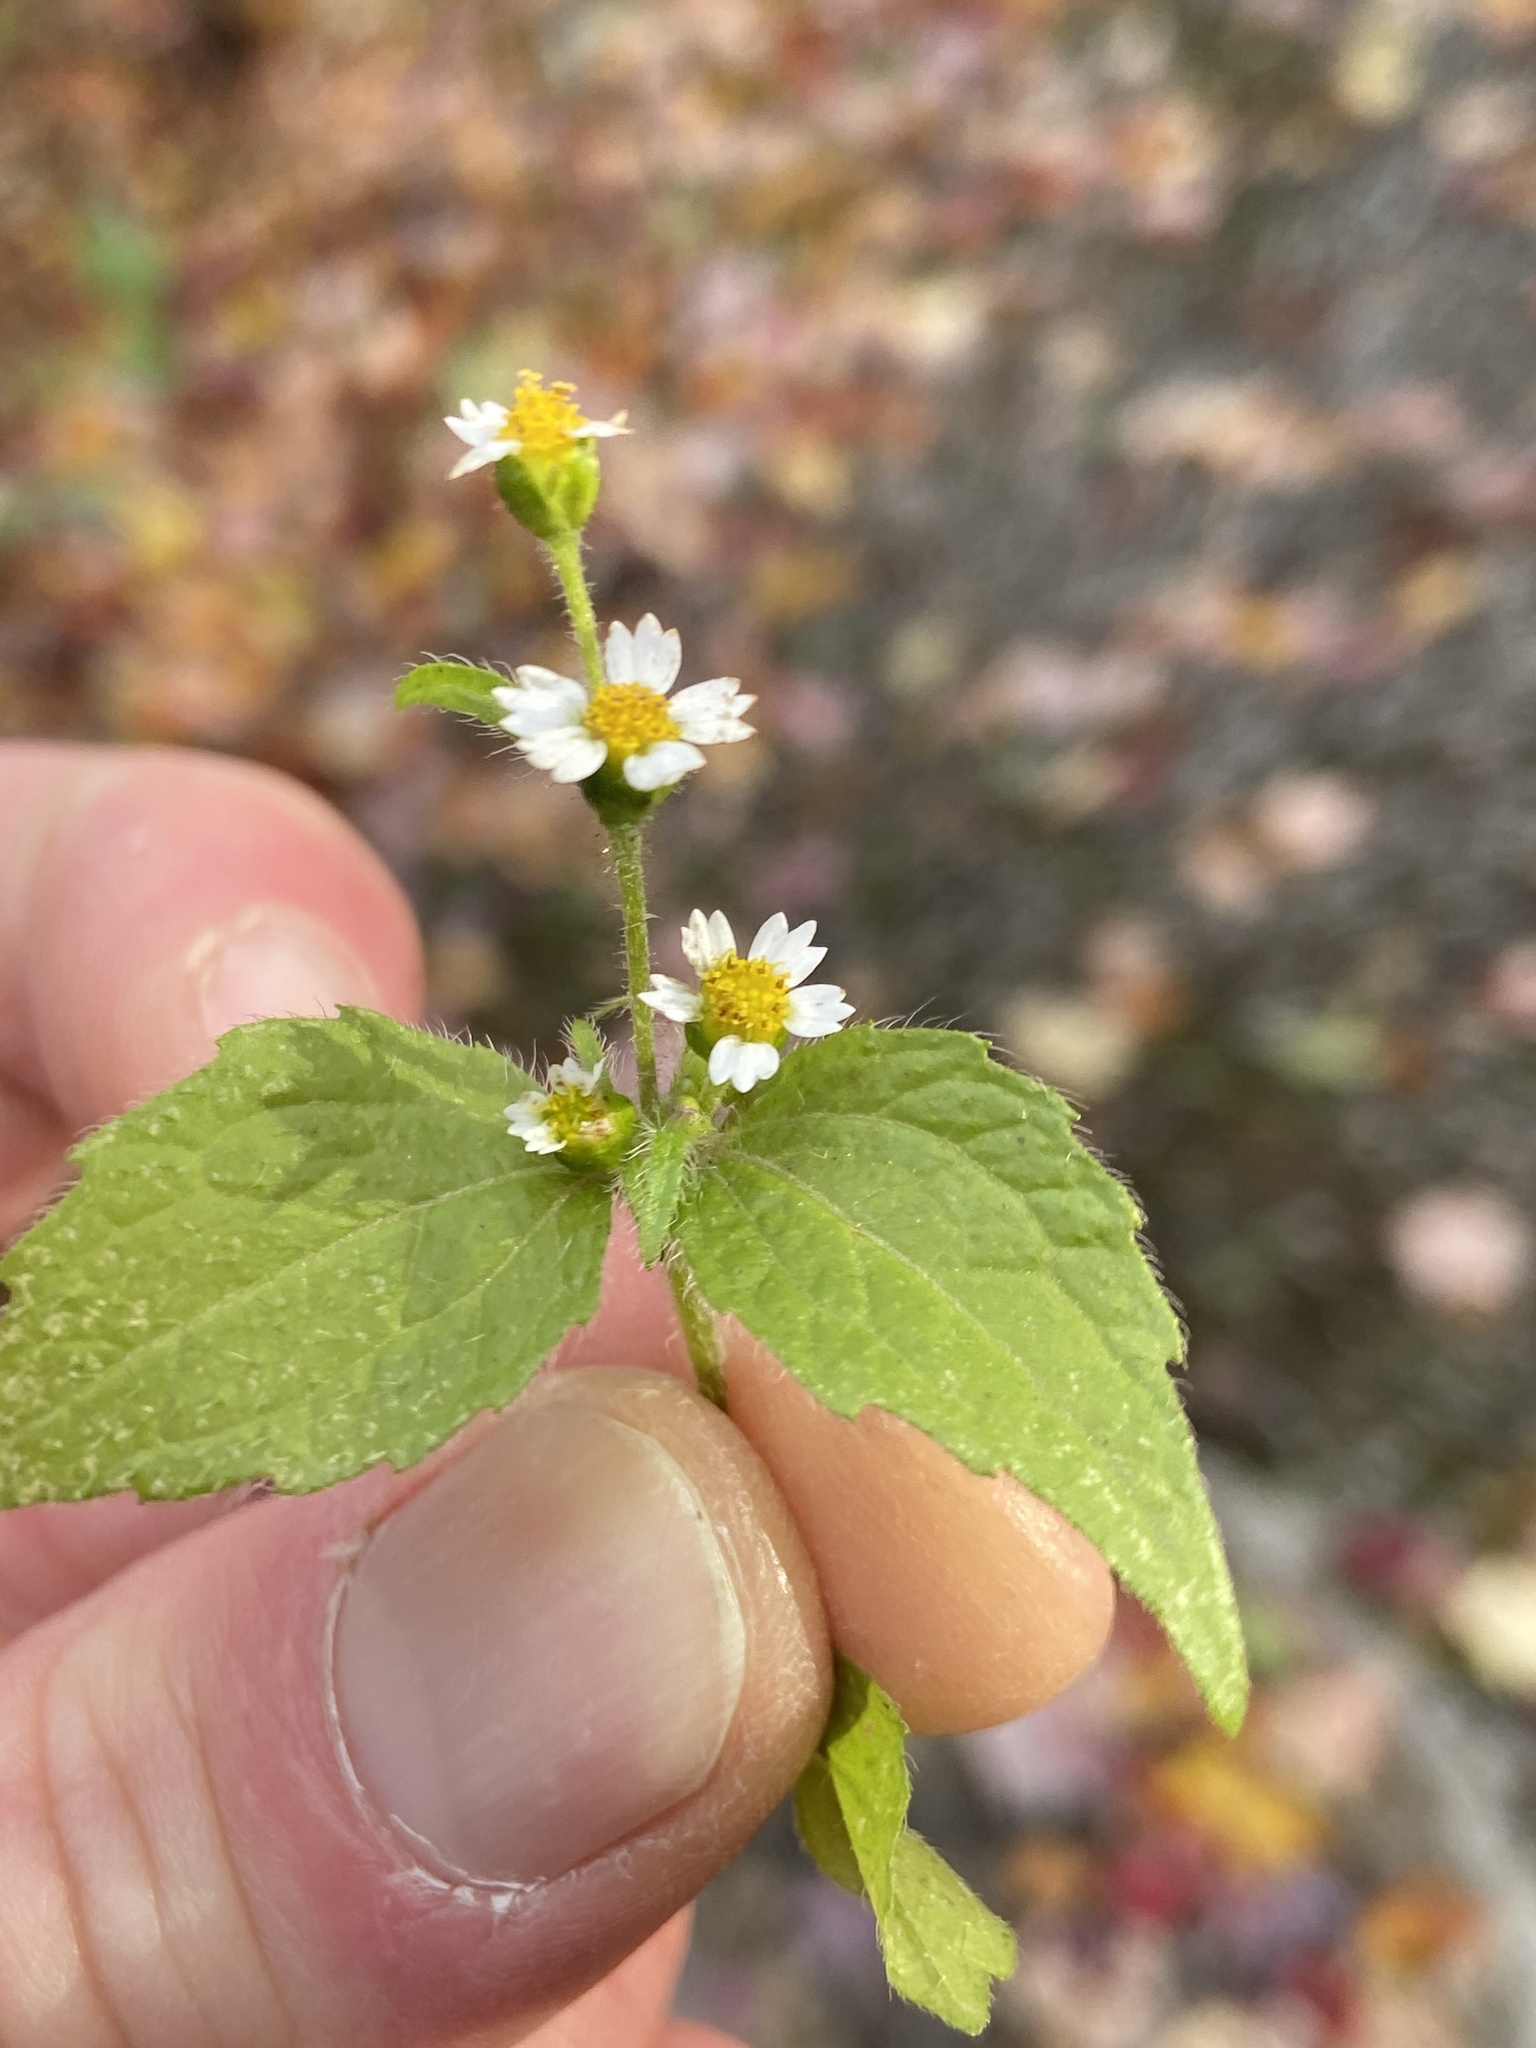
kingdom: Plantae
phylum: Tracheophyta
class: Magnoliopsida
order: Asterales
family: Asteraceae
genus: Galinsoga
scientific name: Galinsoga quadriradiata
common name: Shaggy soldier
